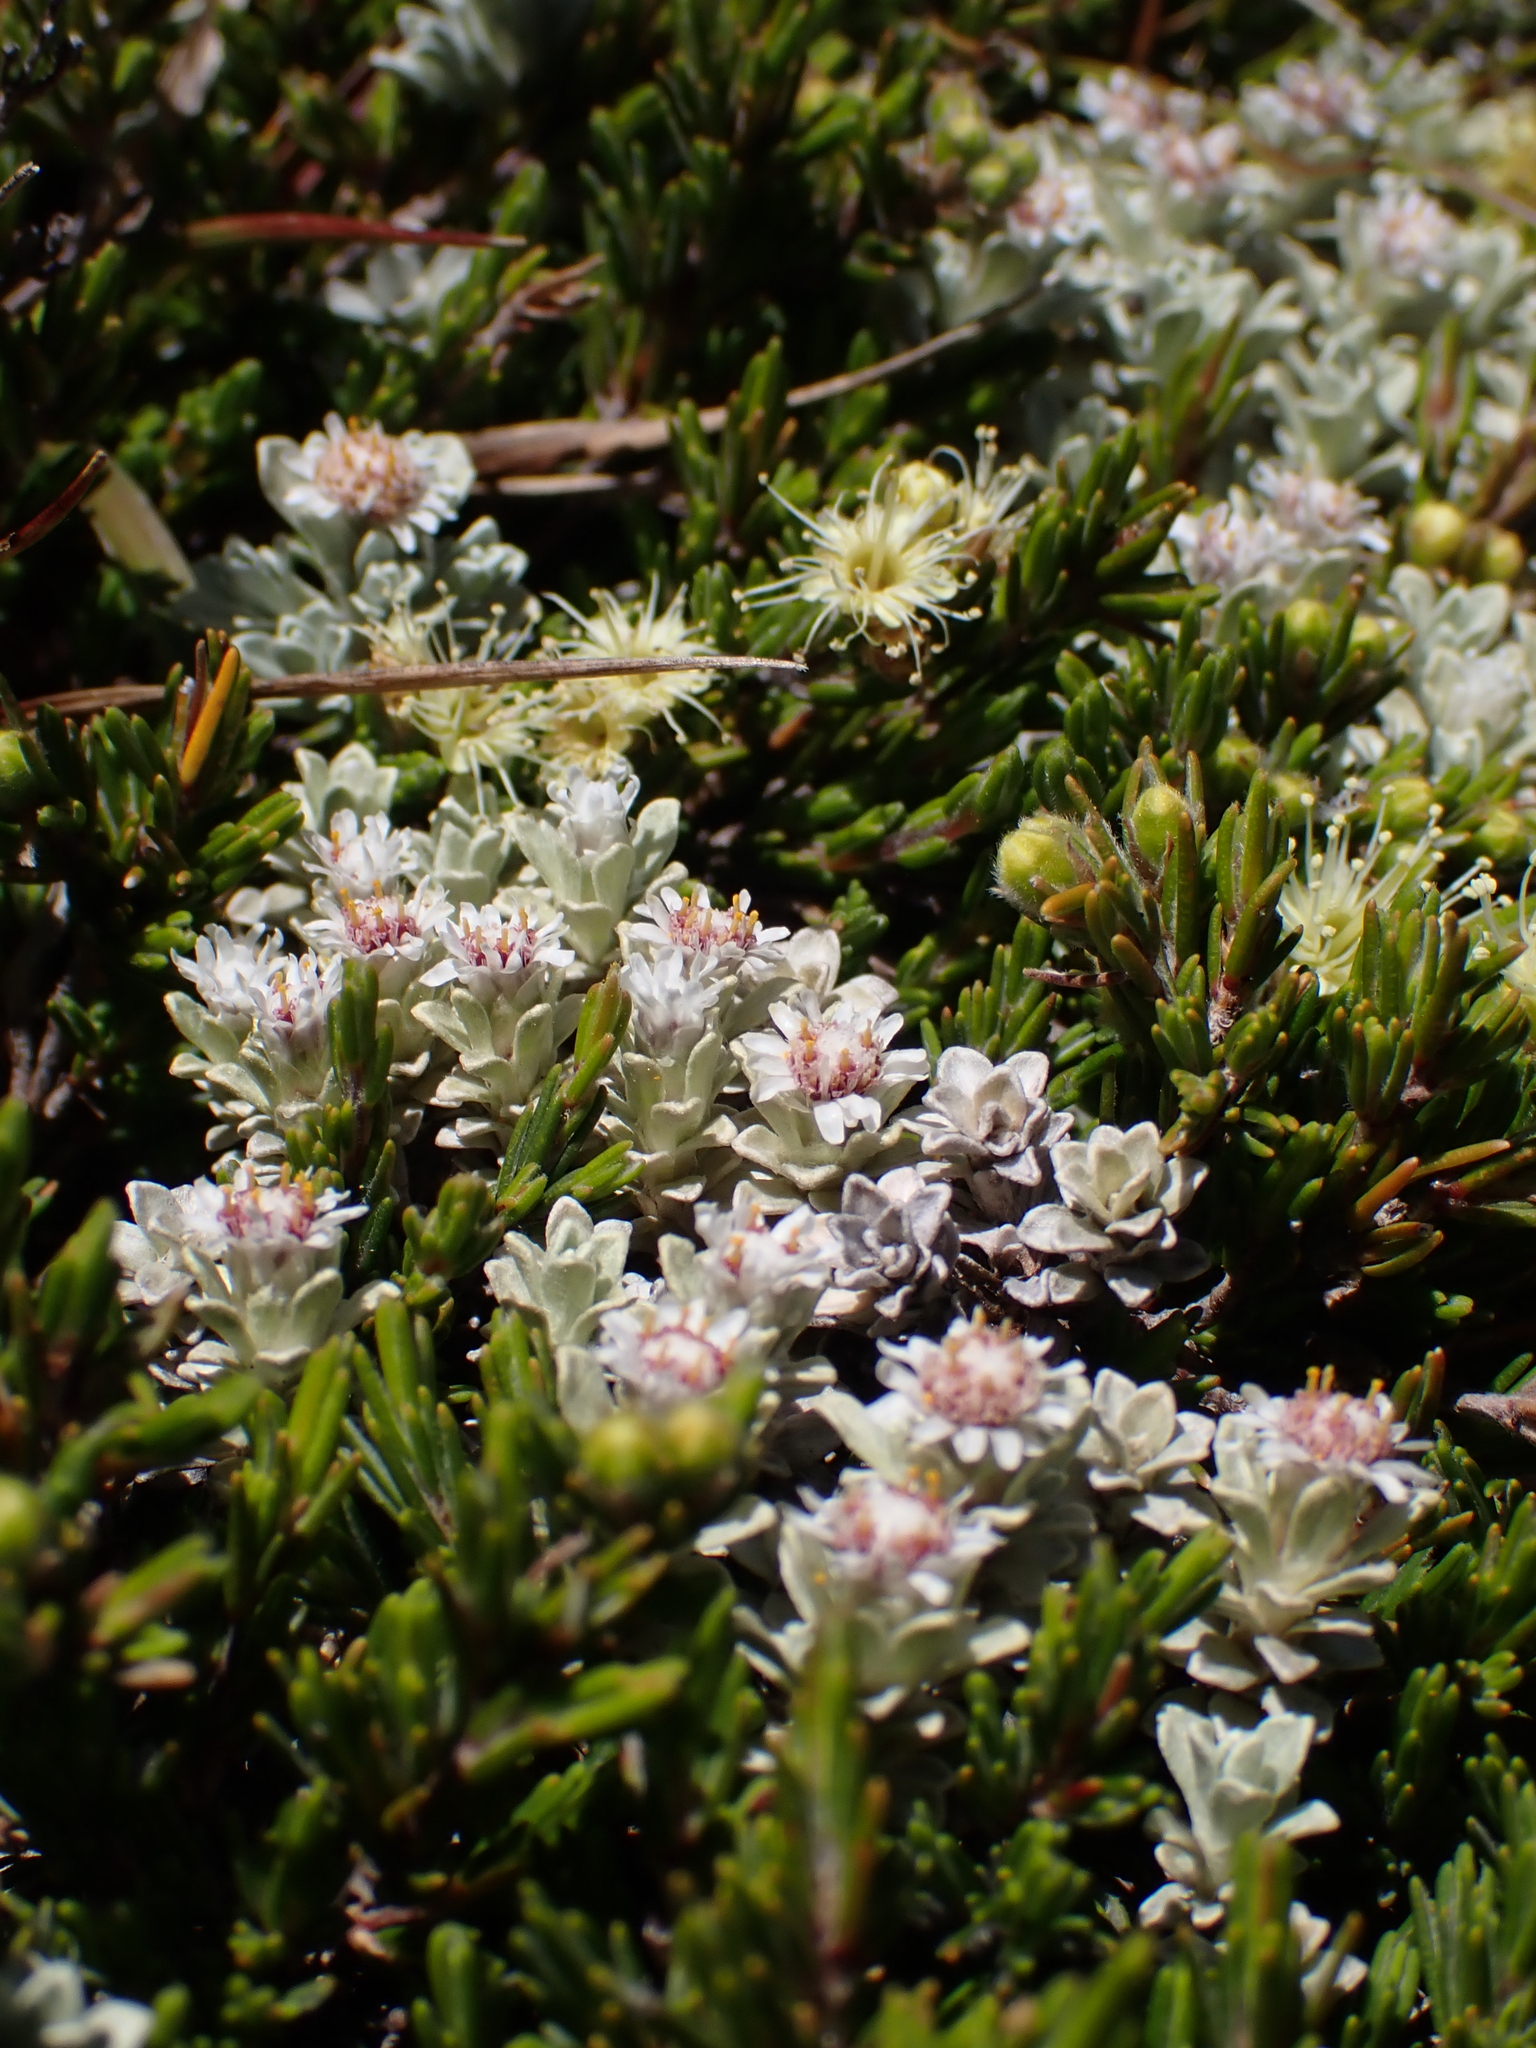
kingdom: Plantae
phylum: Tracheophyta
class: Magnoliopsida
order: Asterales
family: Asteraceae
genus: Ewartia
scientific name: Ewartia nubigena
